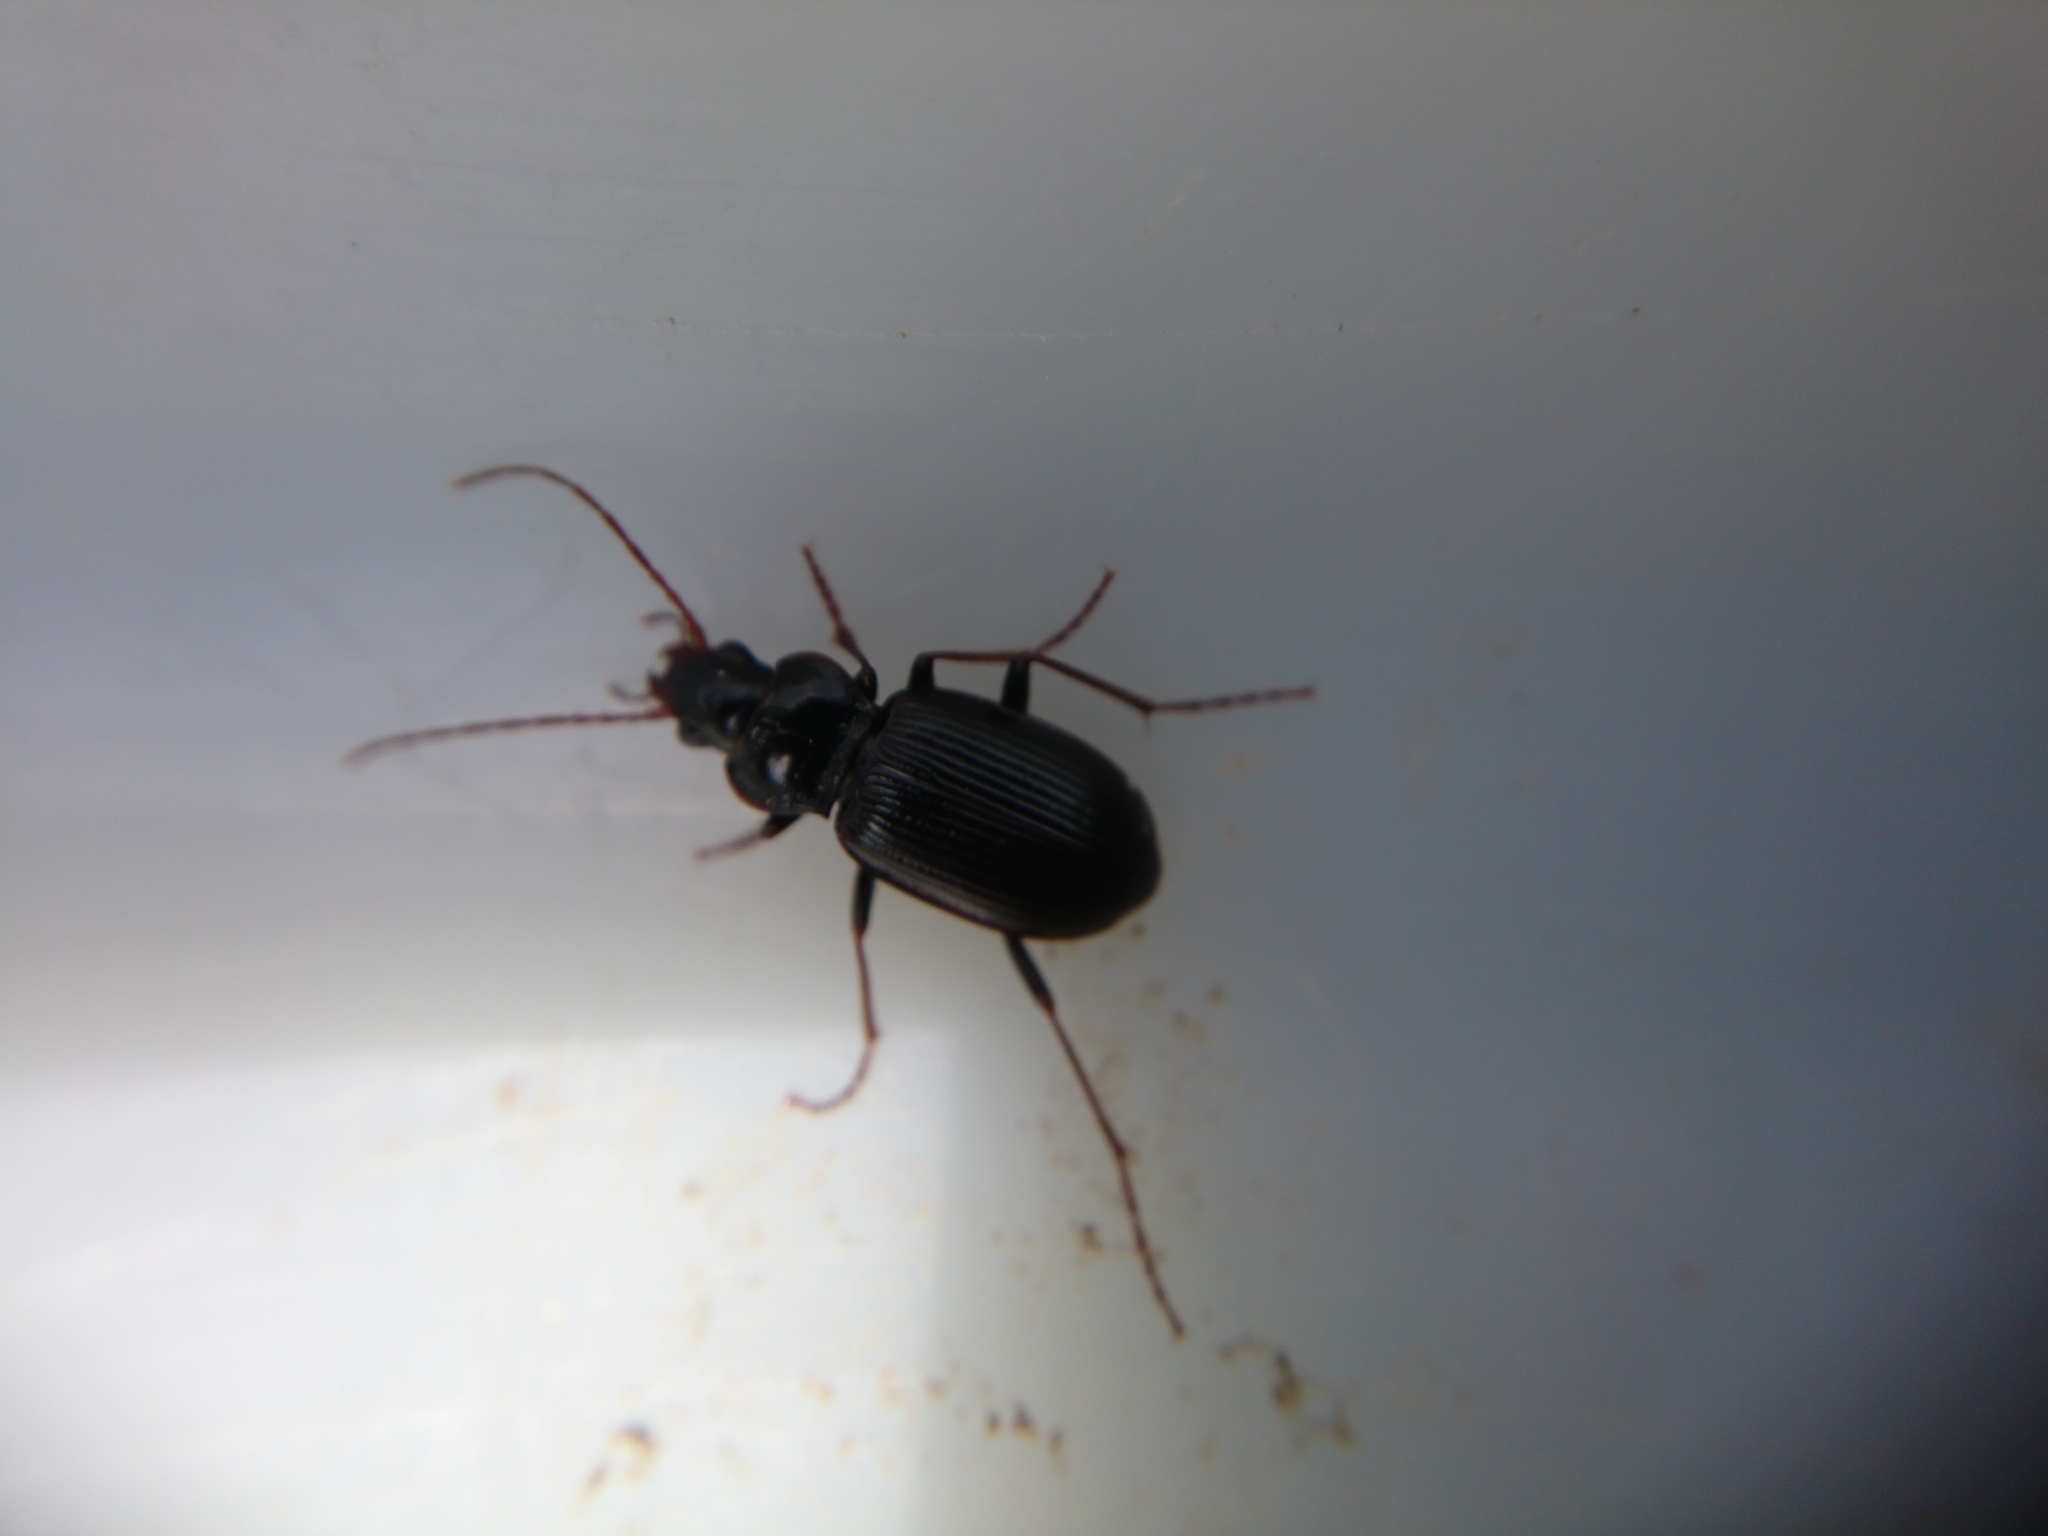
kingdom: Animalia
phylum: Arthropoda
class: Insecta
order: Coleoptera
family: Carabidae
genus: Nebria
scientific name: Nebria brevicollis
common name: Short-necked gazelle beetle
